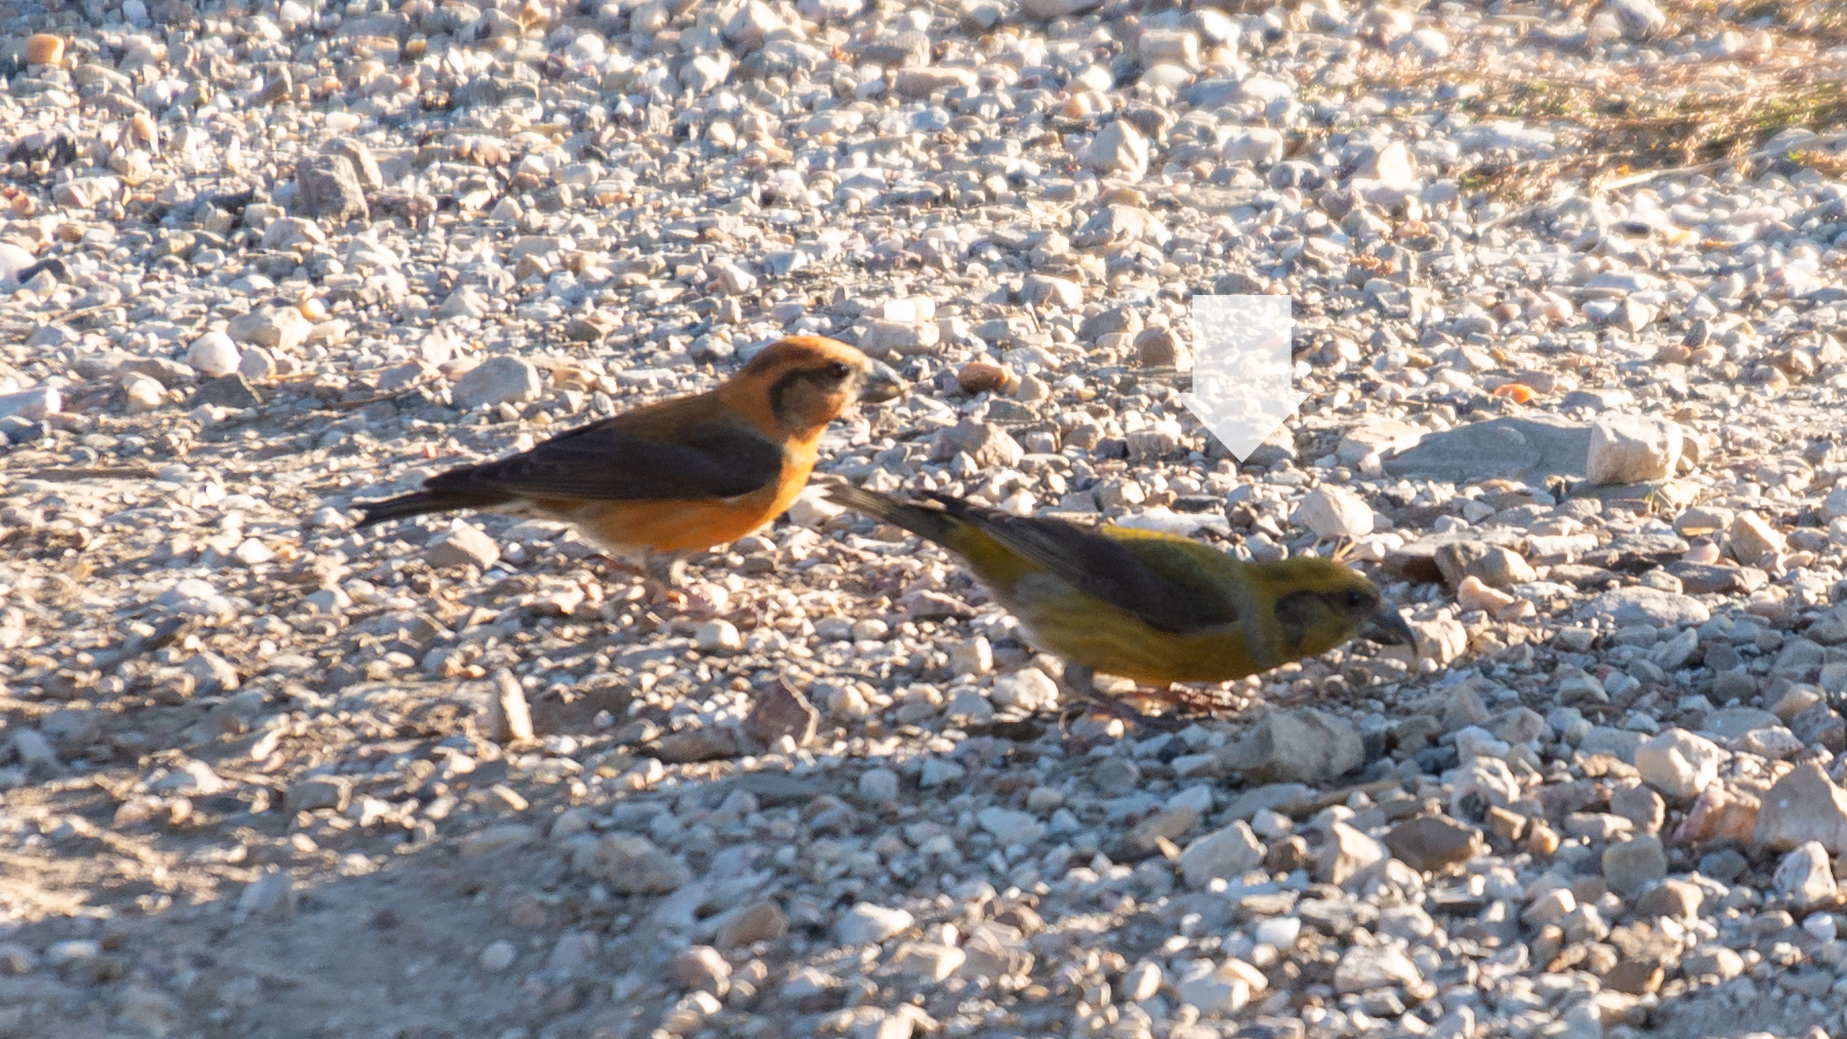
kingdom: Animalia
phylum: Chordata
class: Aves
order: Passeriformes
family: Fringillidae
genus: Loxia
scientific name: Loxia curvirostra
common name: Red crossbill
